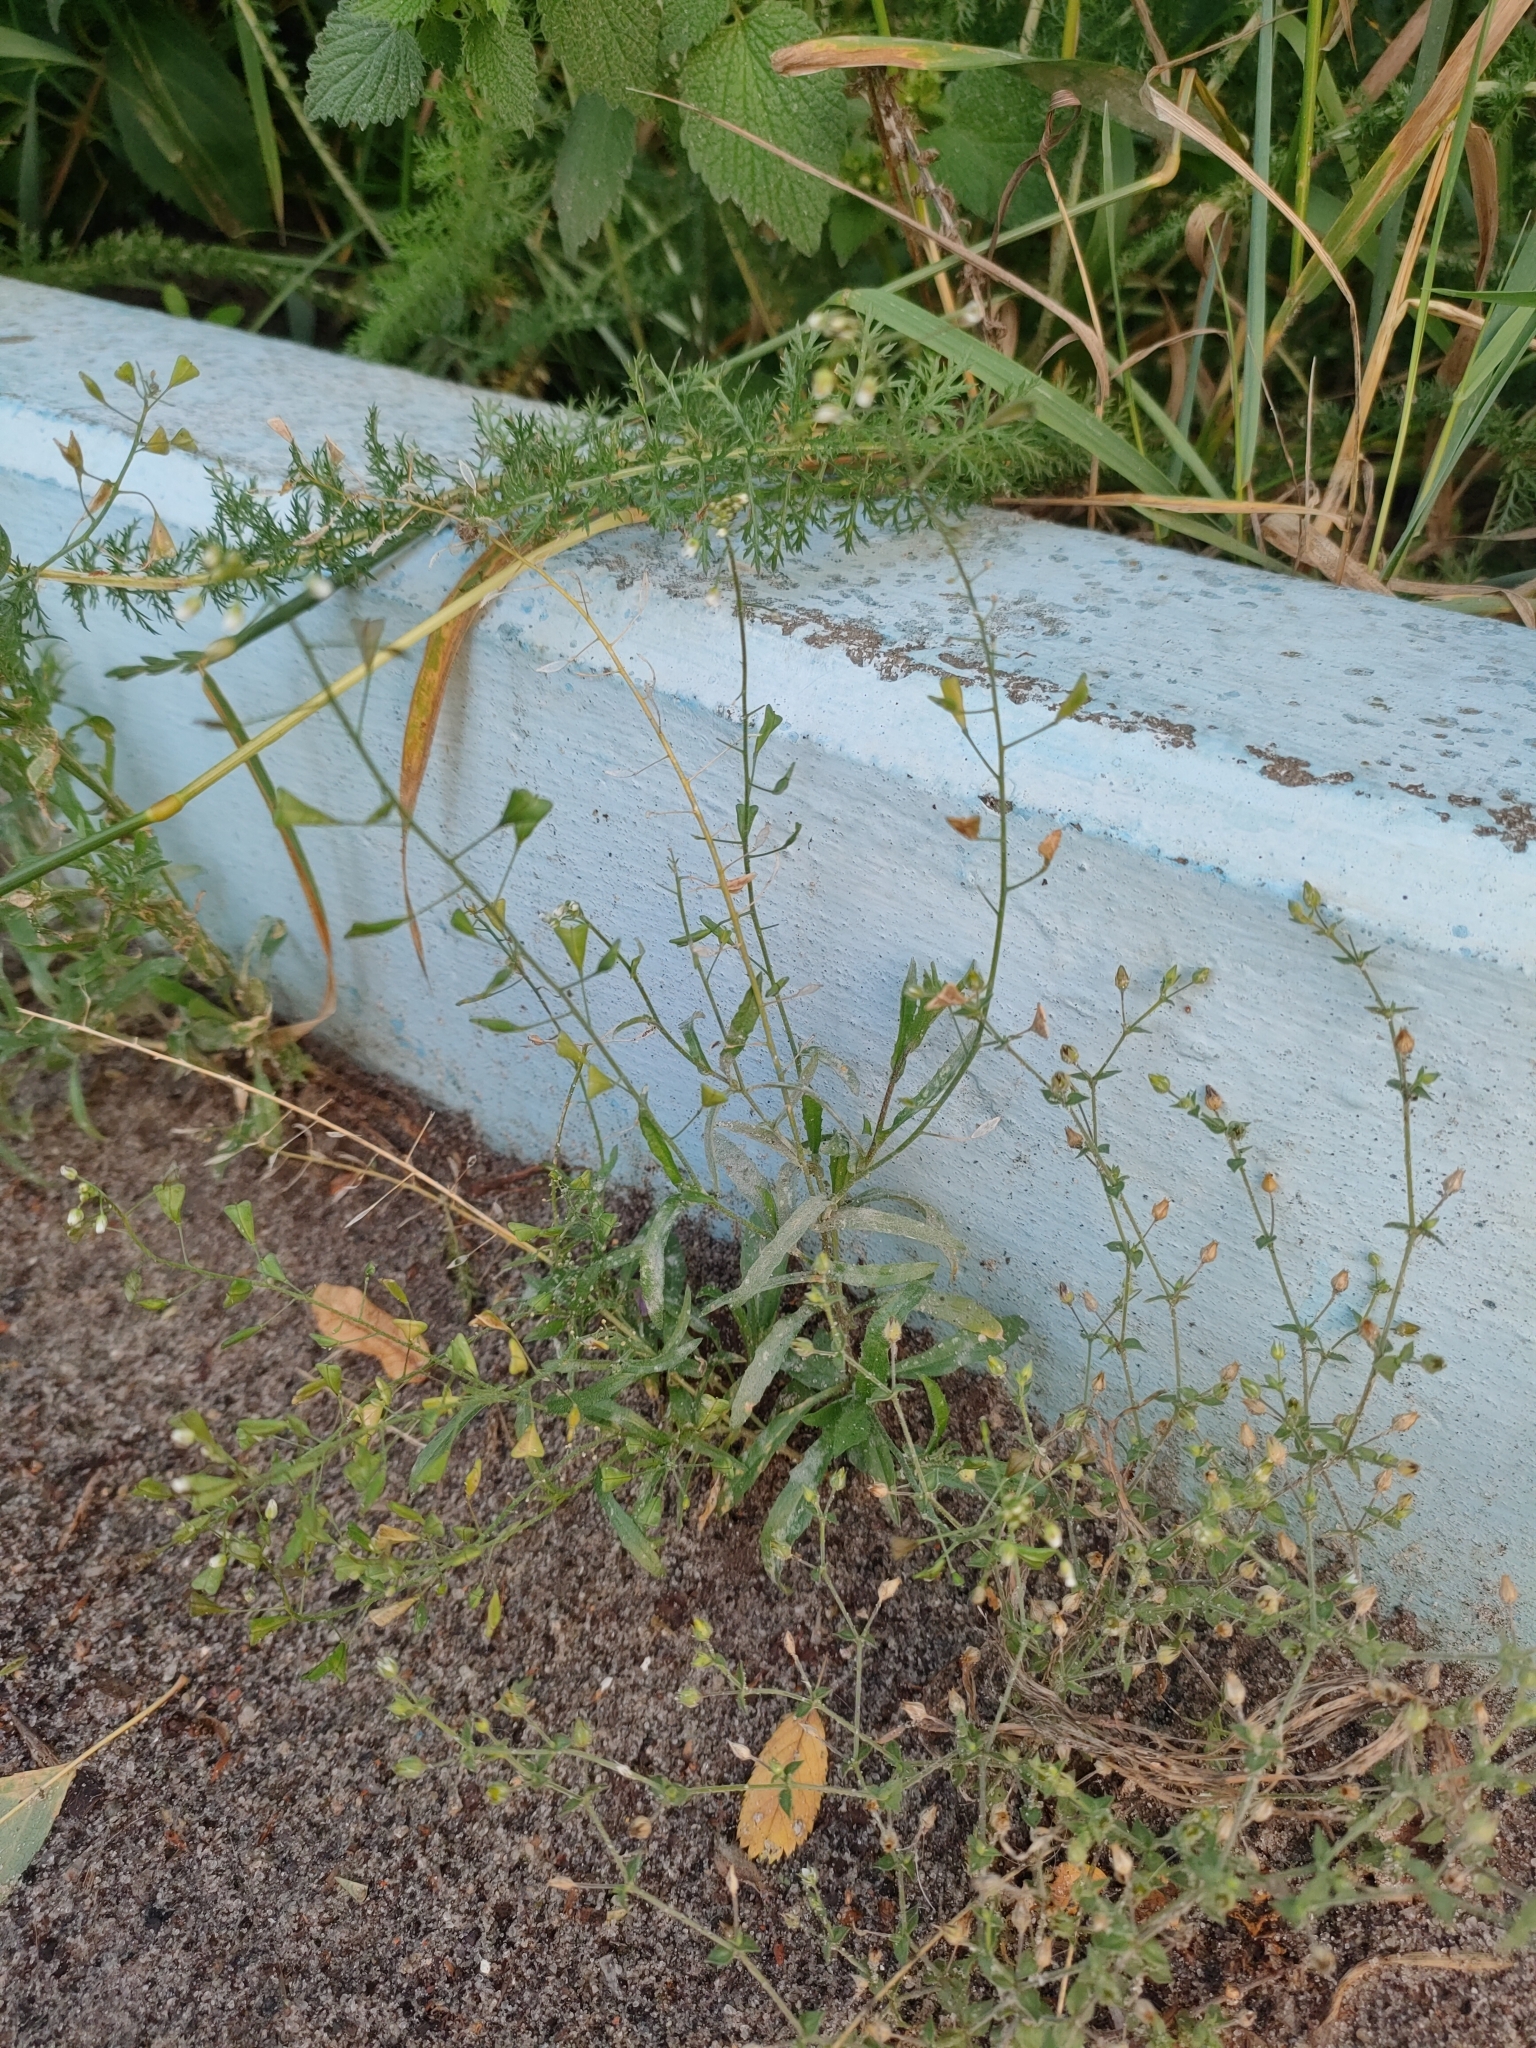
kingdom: Plantae
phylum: Tracheophyta
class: Magnoliopsida
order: Brassicales
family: Brassicaceae
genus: Capsella
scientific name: Capsella bursa-pastoris
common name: Shepherd's purse
